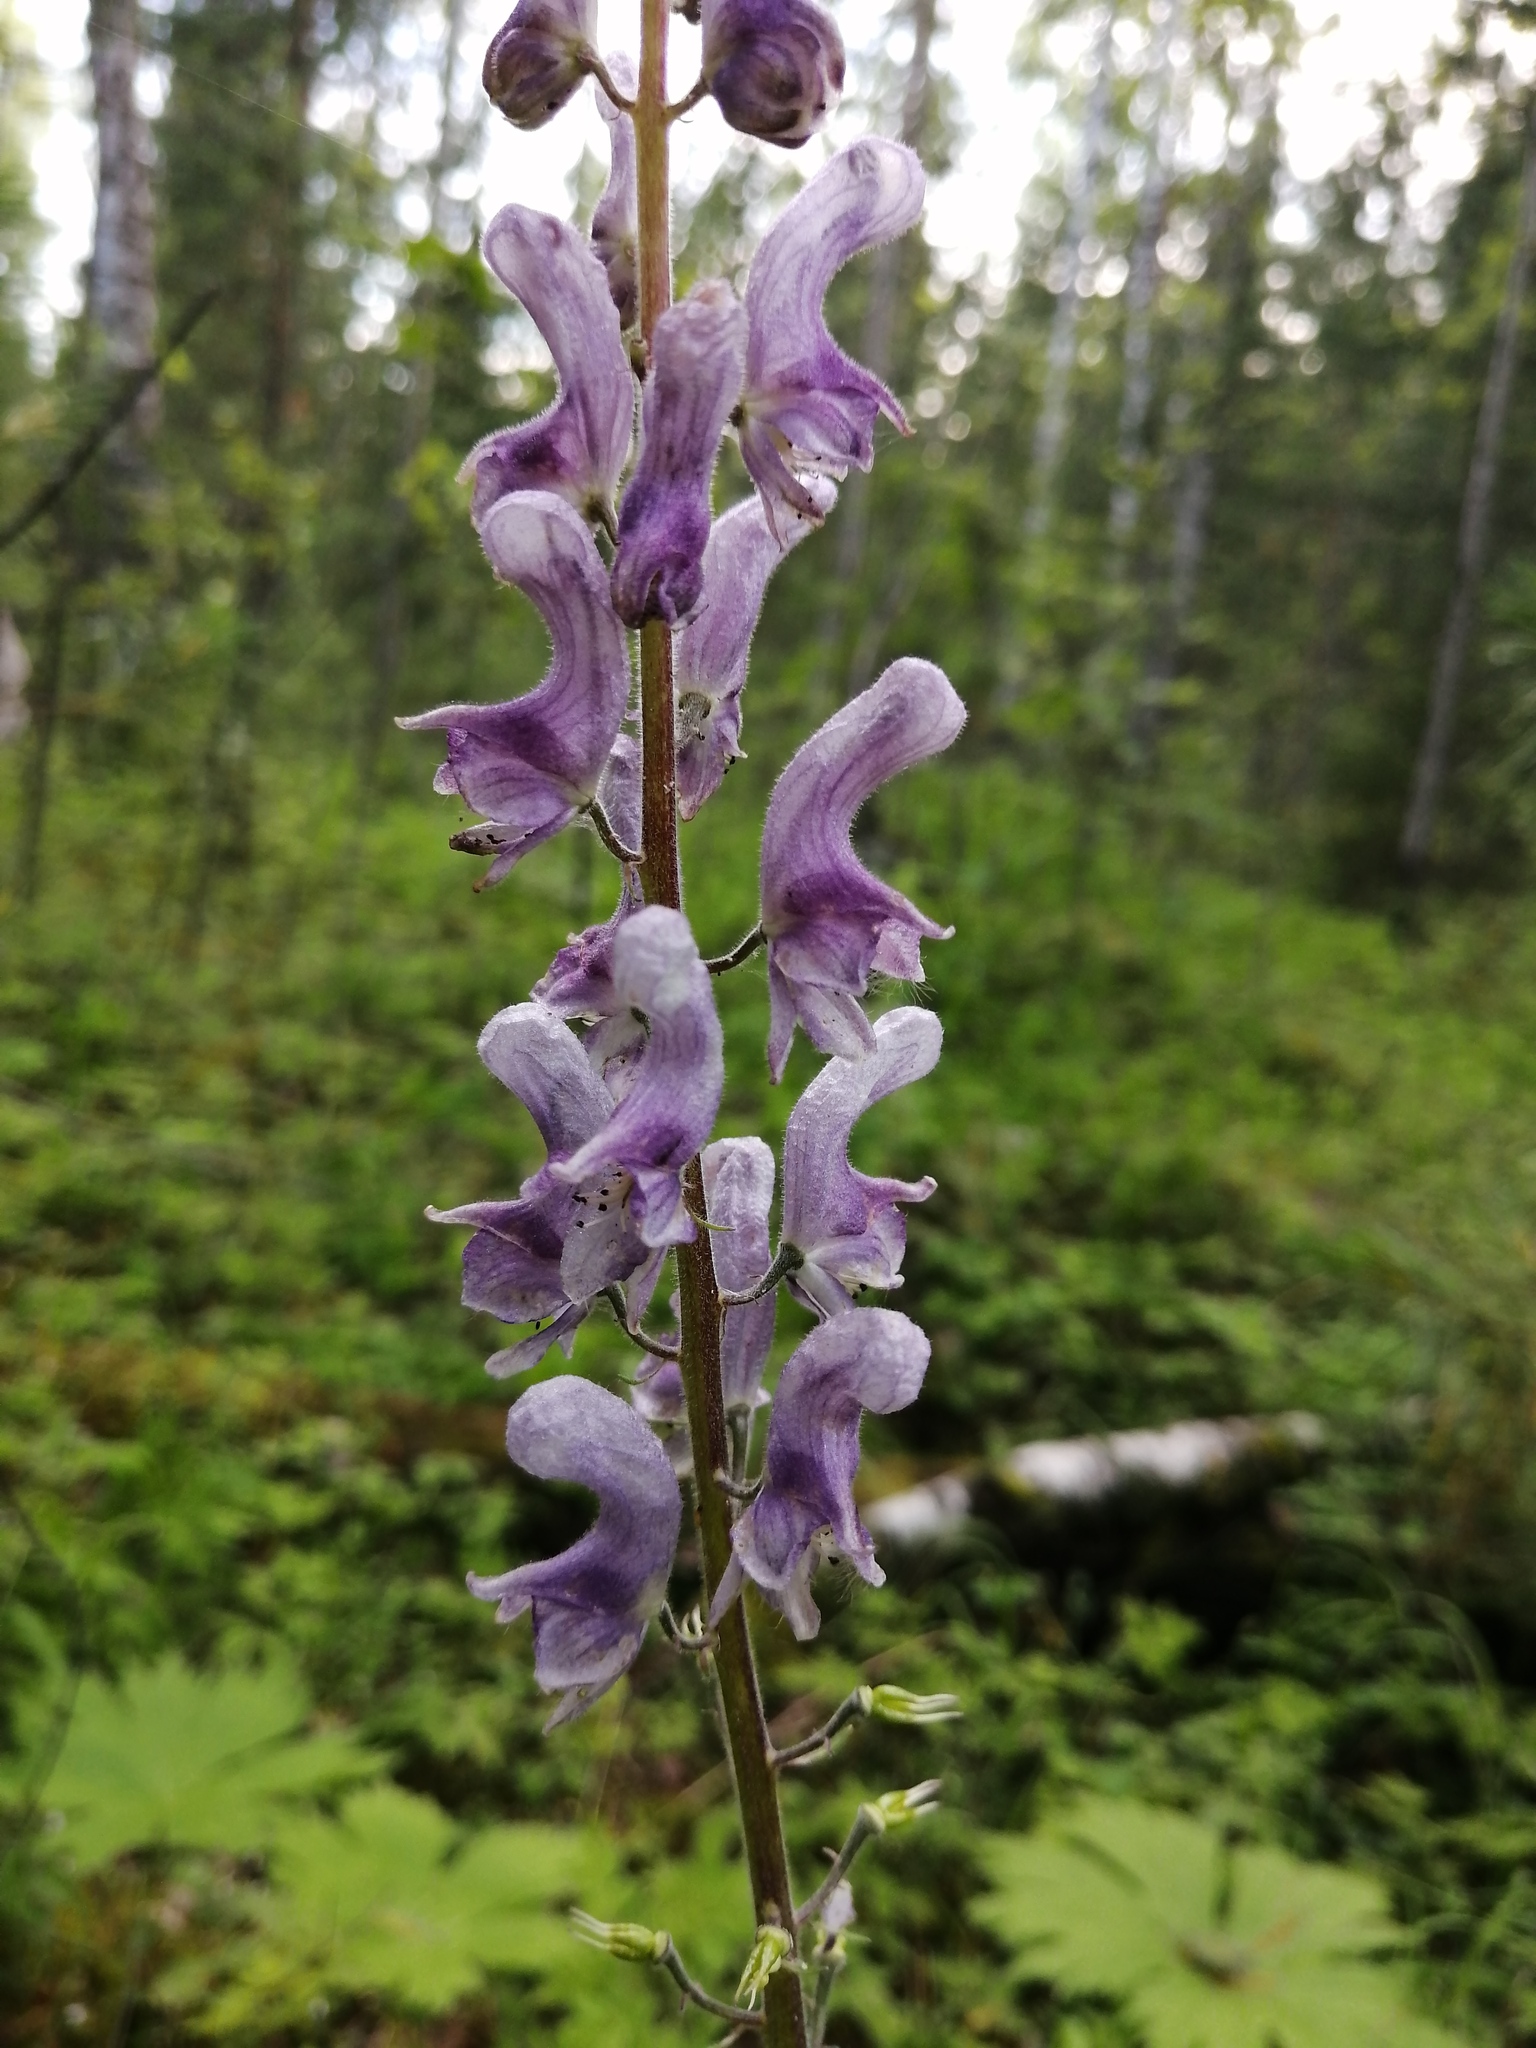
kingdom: Plantae
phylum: Tracheophyta
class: Magnoliopsida
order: Ranunculales
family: Ranunculaceae
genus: Aconitum
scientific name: Aconitum septentrionale
